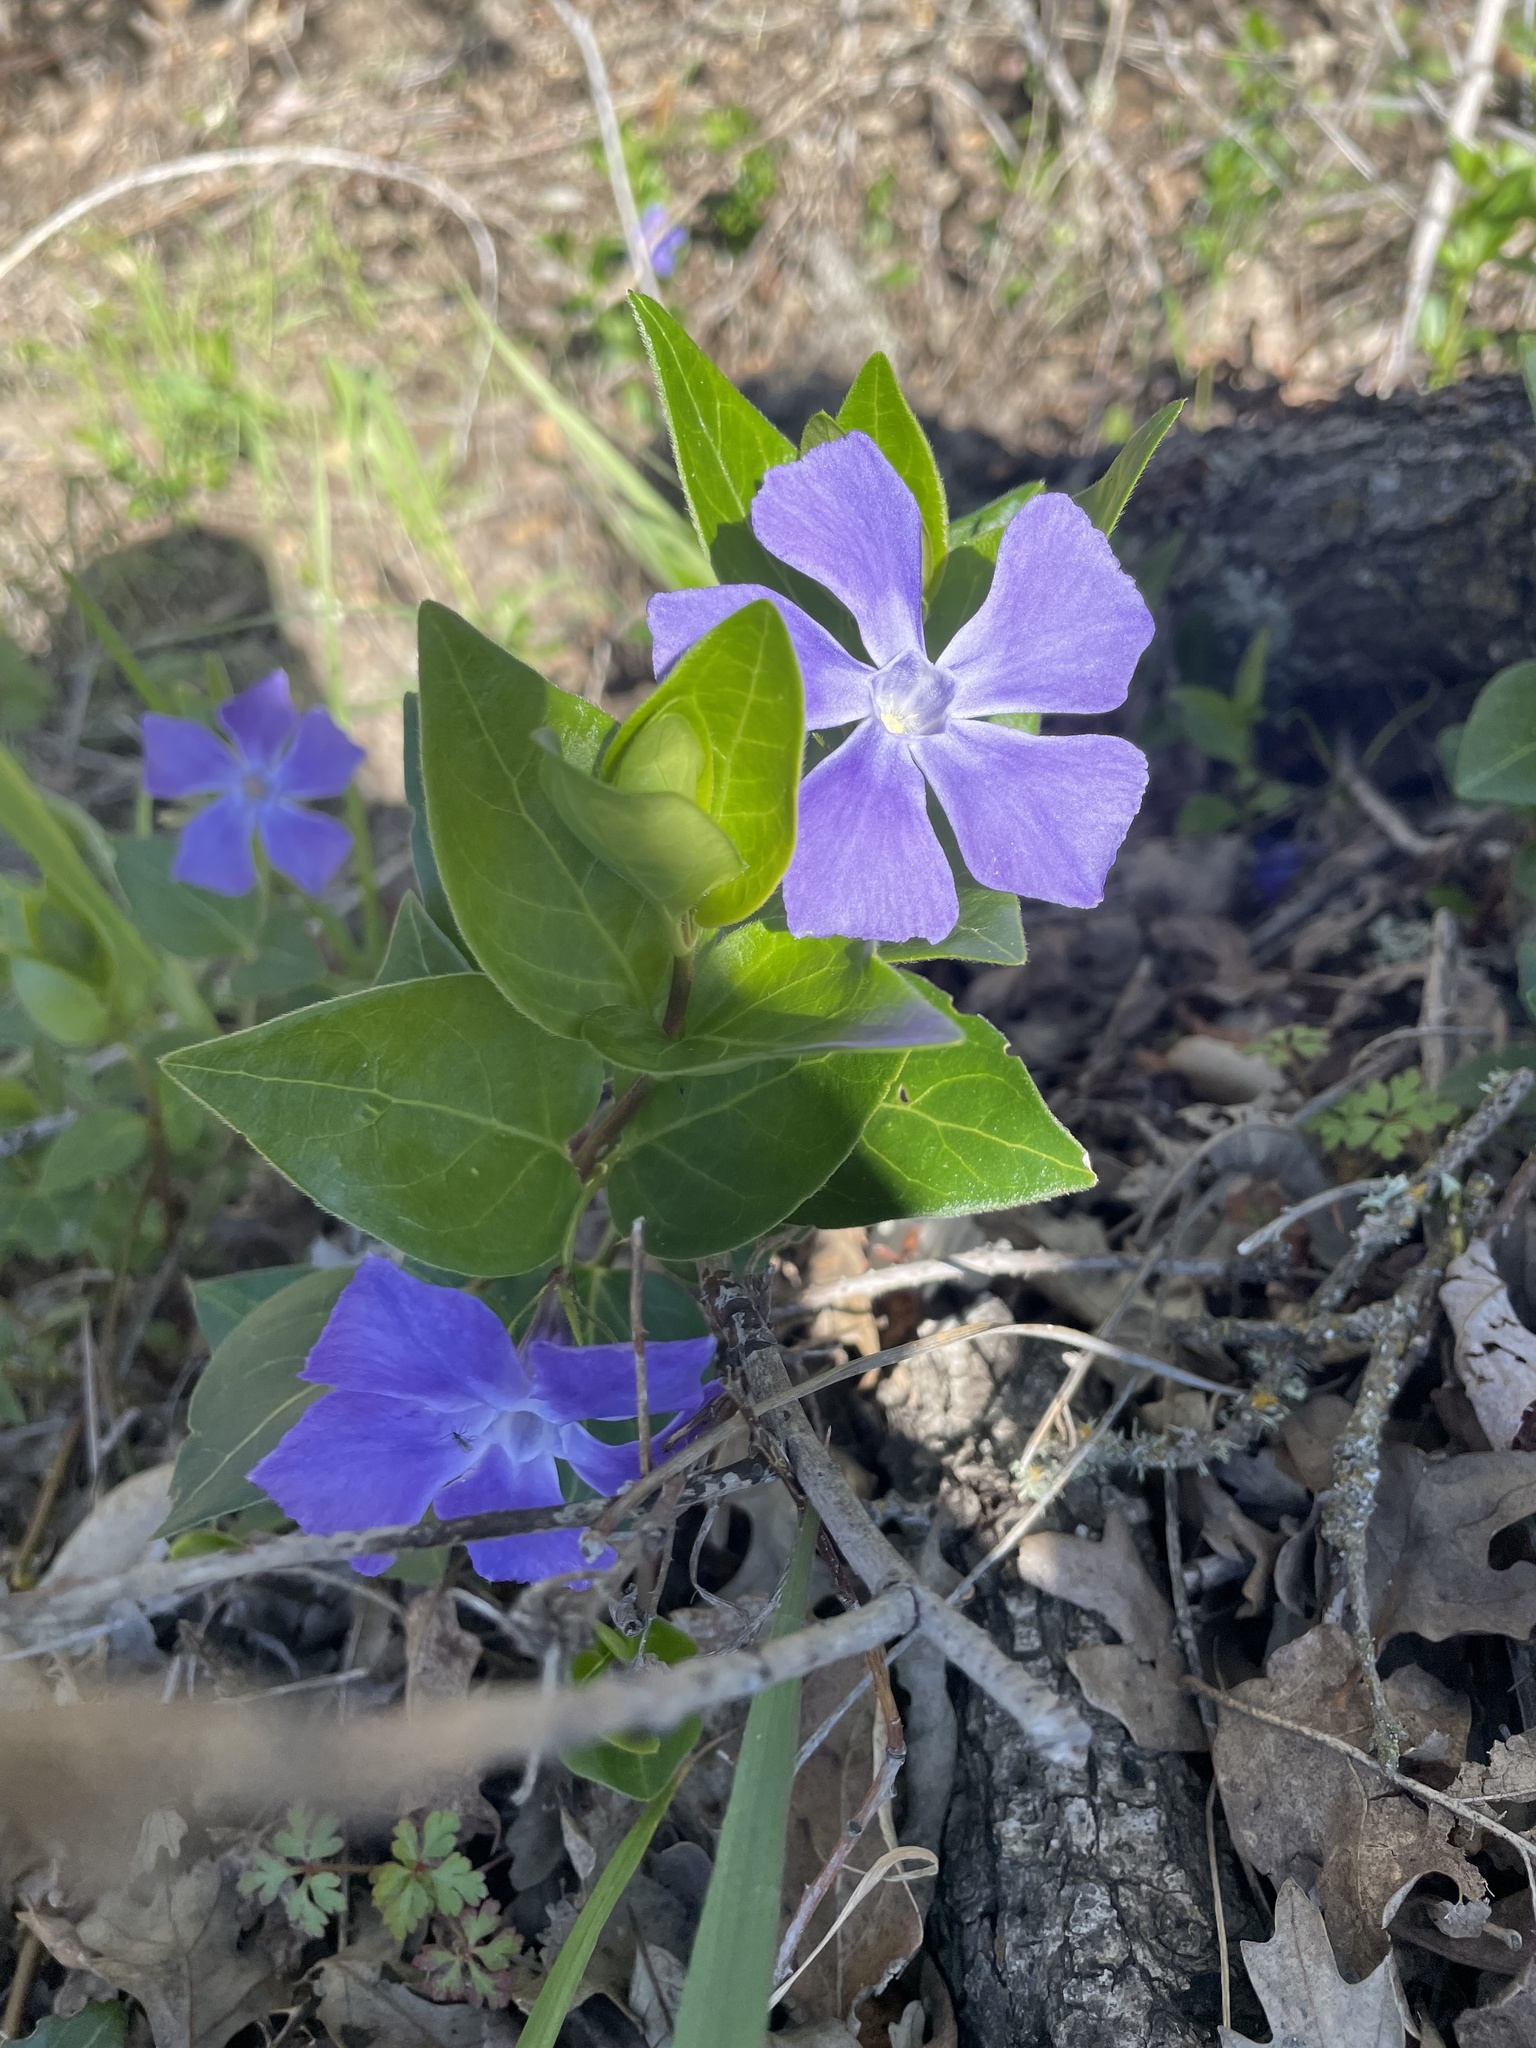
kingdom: Plantae
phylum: Tracheophyta
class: Magnoliopsida
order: Gentianales
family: Apocynaceae
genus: Vinca
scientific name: Vinca major
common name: Greater periwinkle
